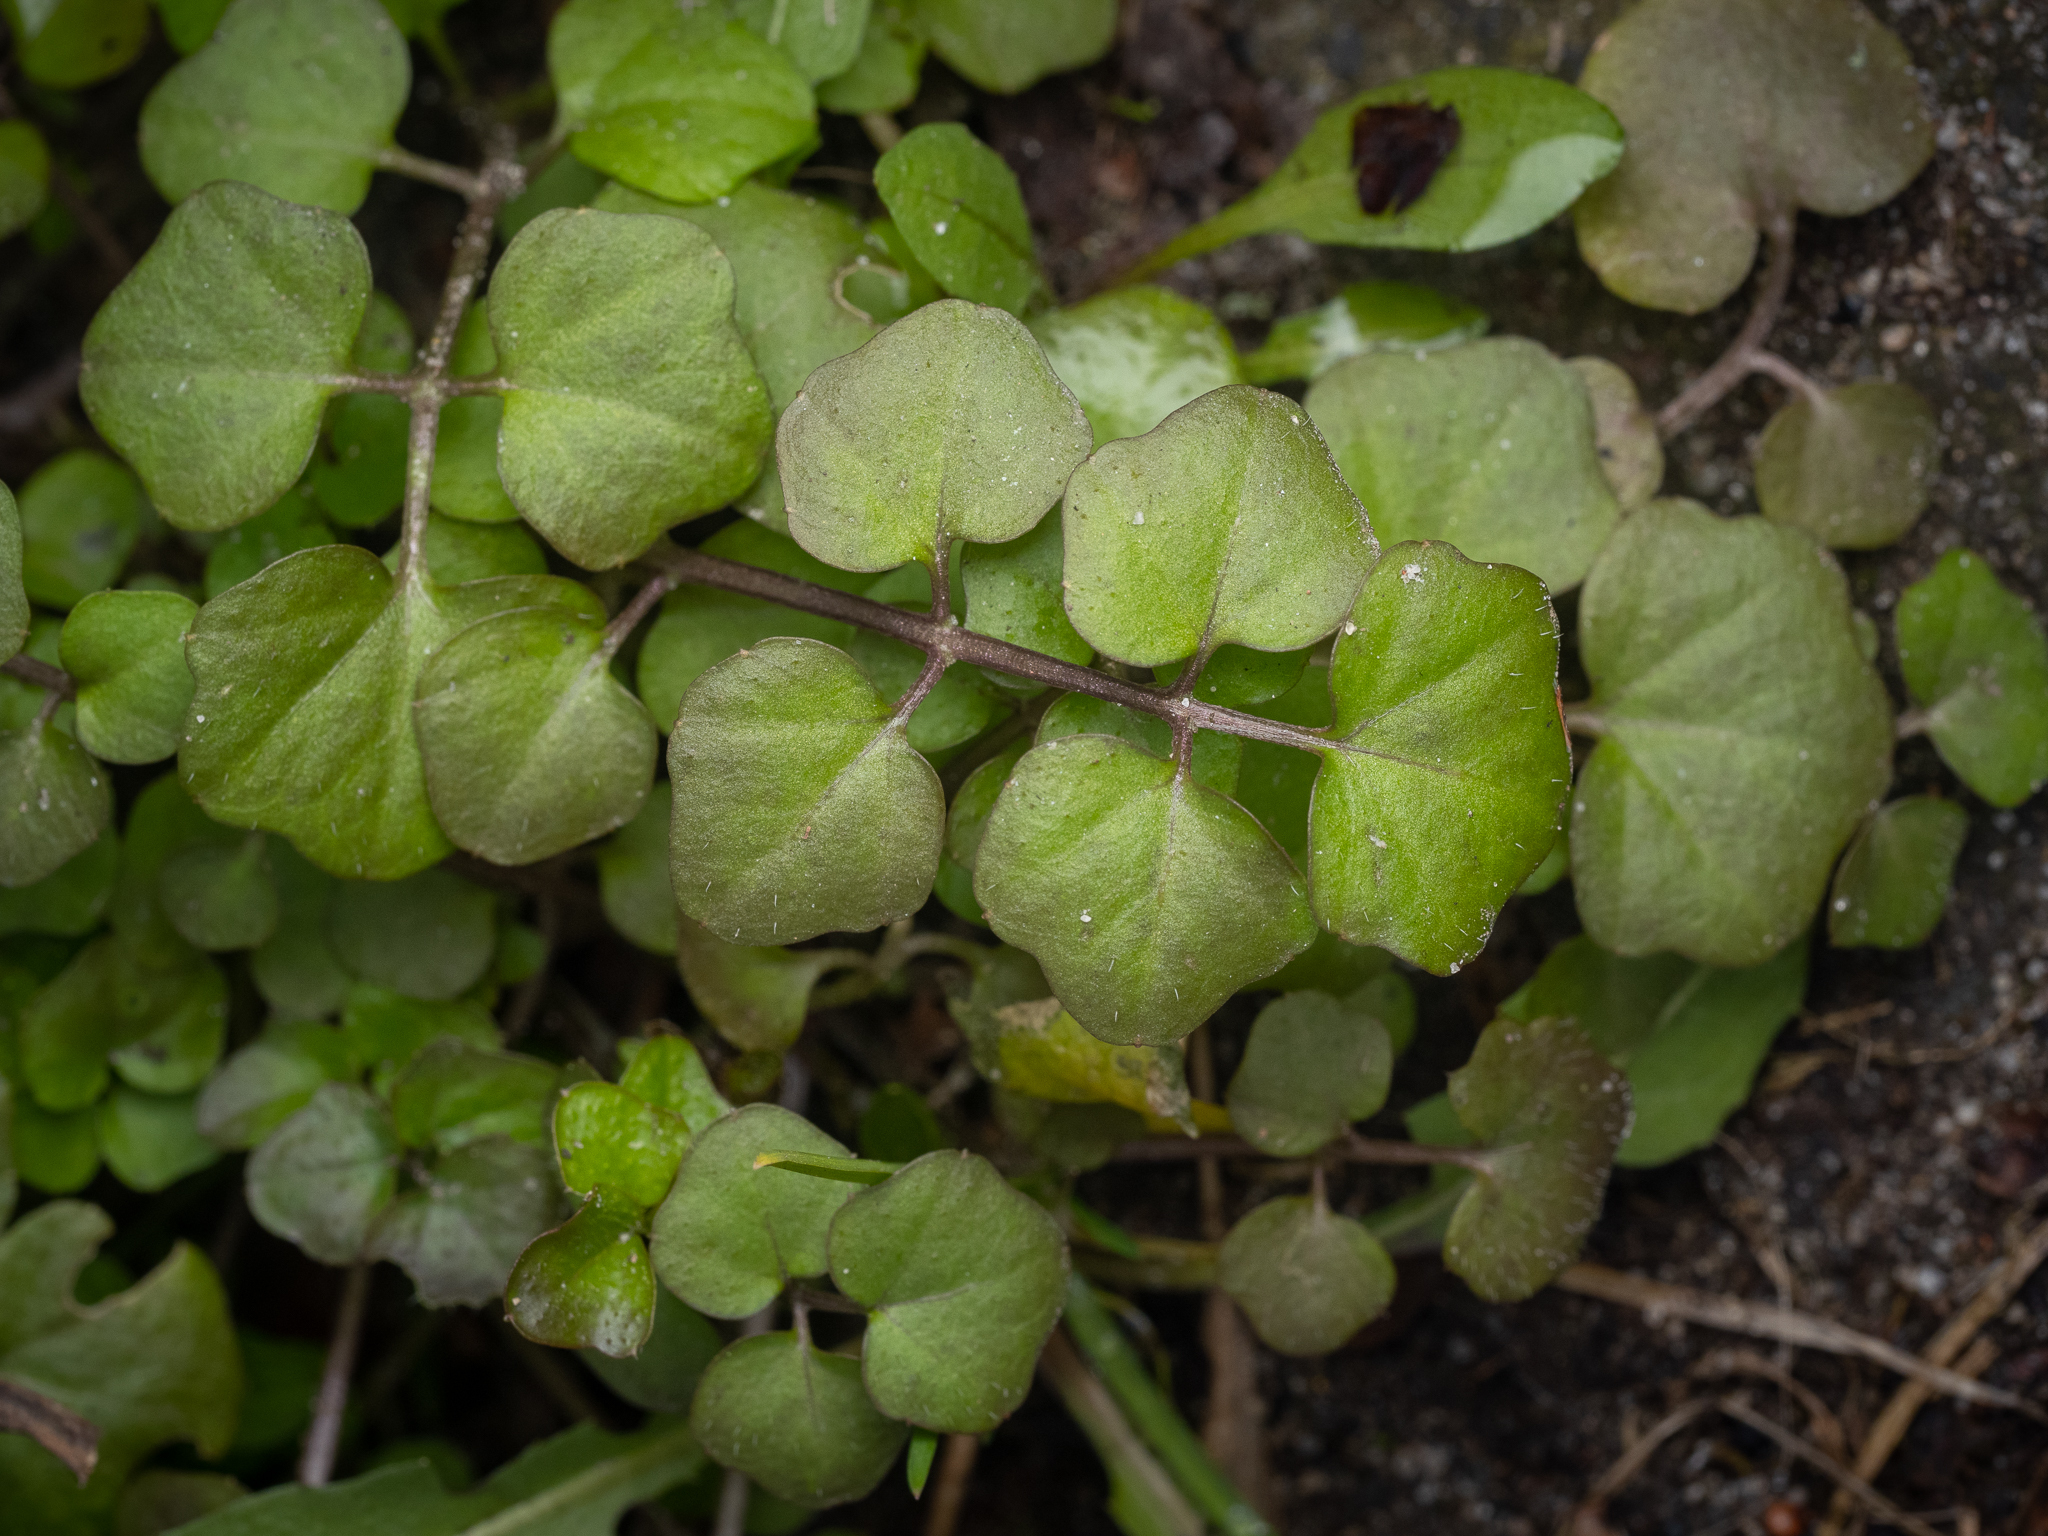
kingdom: Plantae
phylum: Tracheophyta
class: Magnoliopsida
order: Brassicales
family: Brassicaceae
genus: Cardamine
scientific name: Cardamine hirsuta
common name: Hairy bittercress
